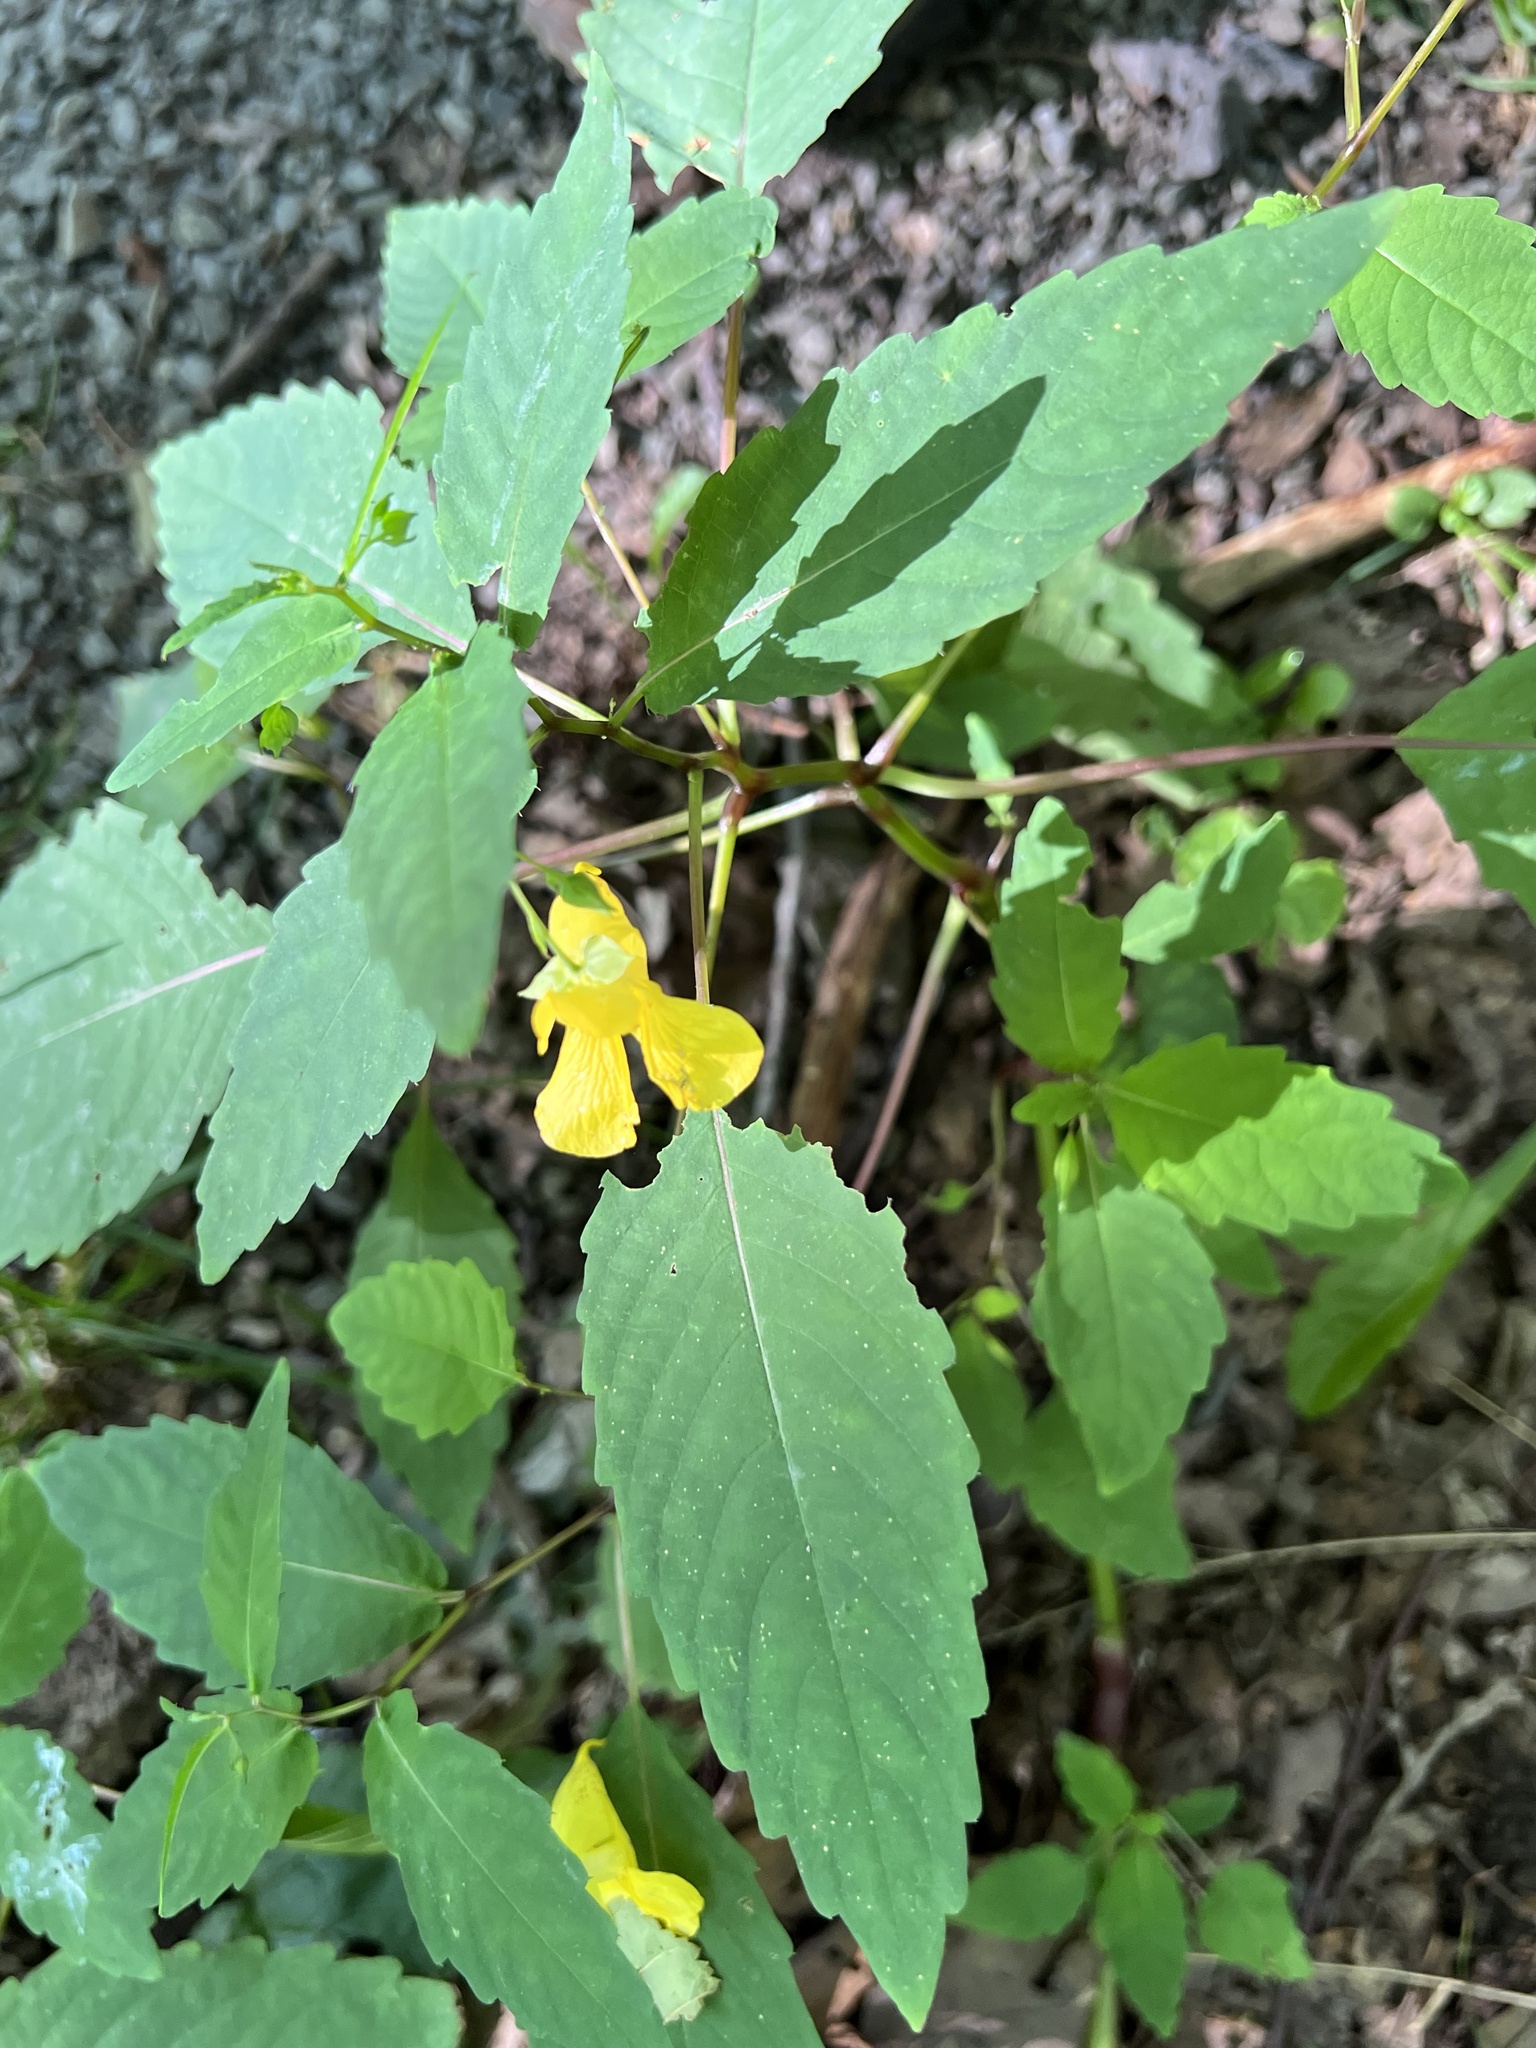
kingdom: Plantae
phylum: Tracheophyta
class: Magnoliopsida
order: Ericales
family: Balsaminaceae
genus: Impatiens
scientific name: Impatiens pallida
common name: Pale snapweed
